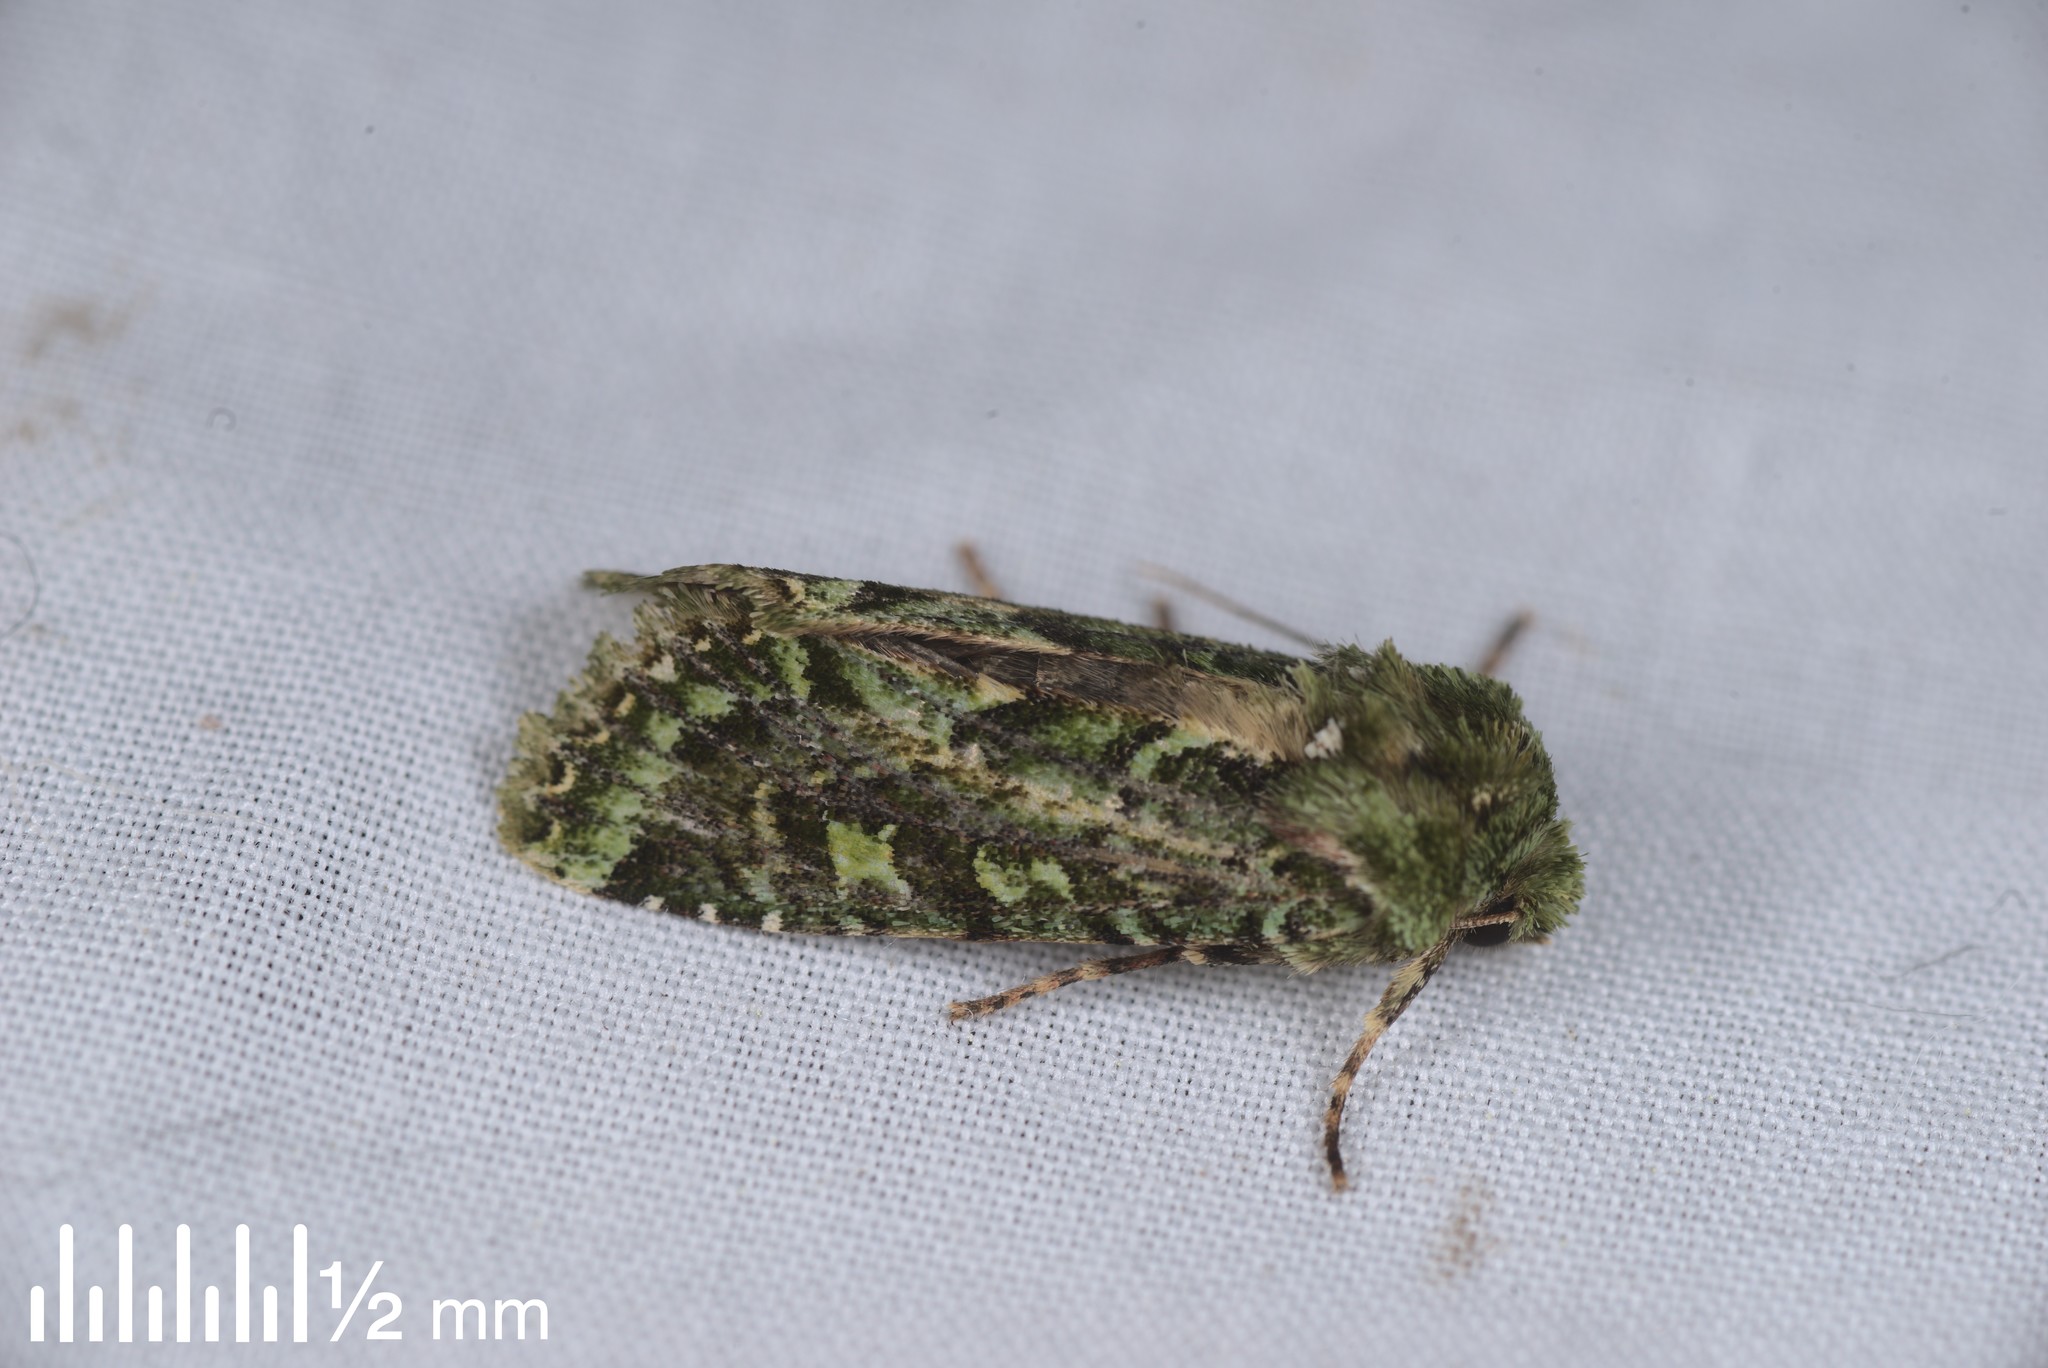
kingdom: Animalia
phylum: Arthropoda
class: Insecta
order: Lepidoptera
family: Noctuidae
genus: Feredayia
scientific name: Feredayia grammosa
